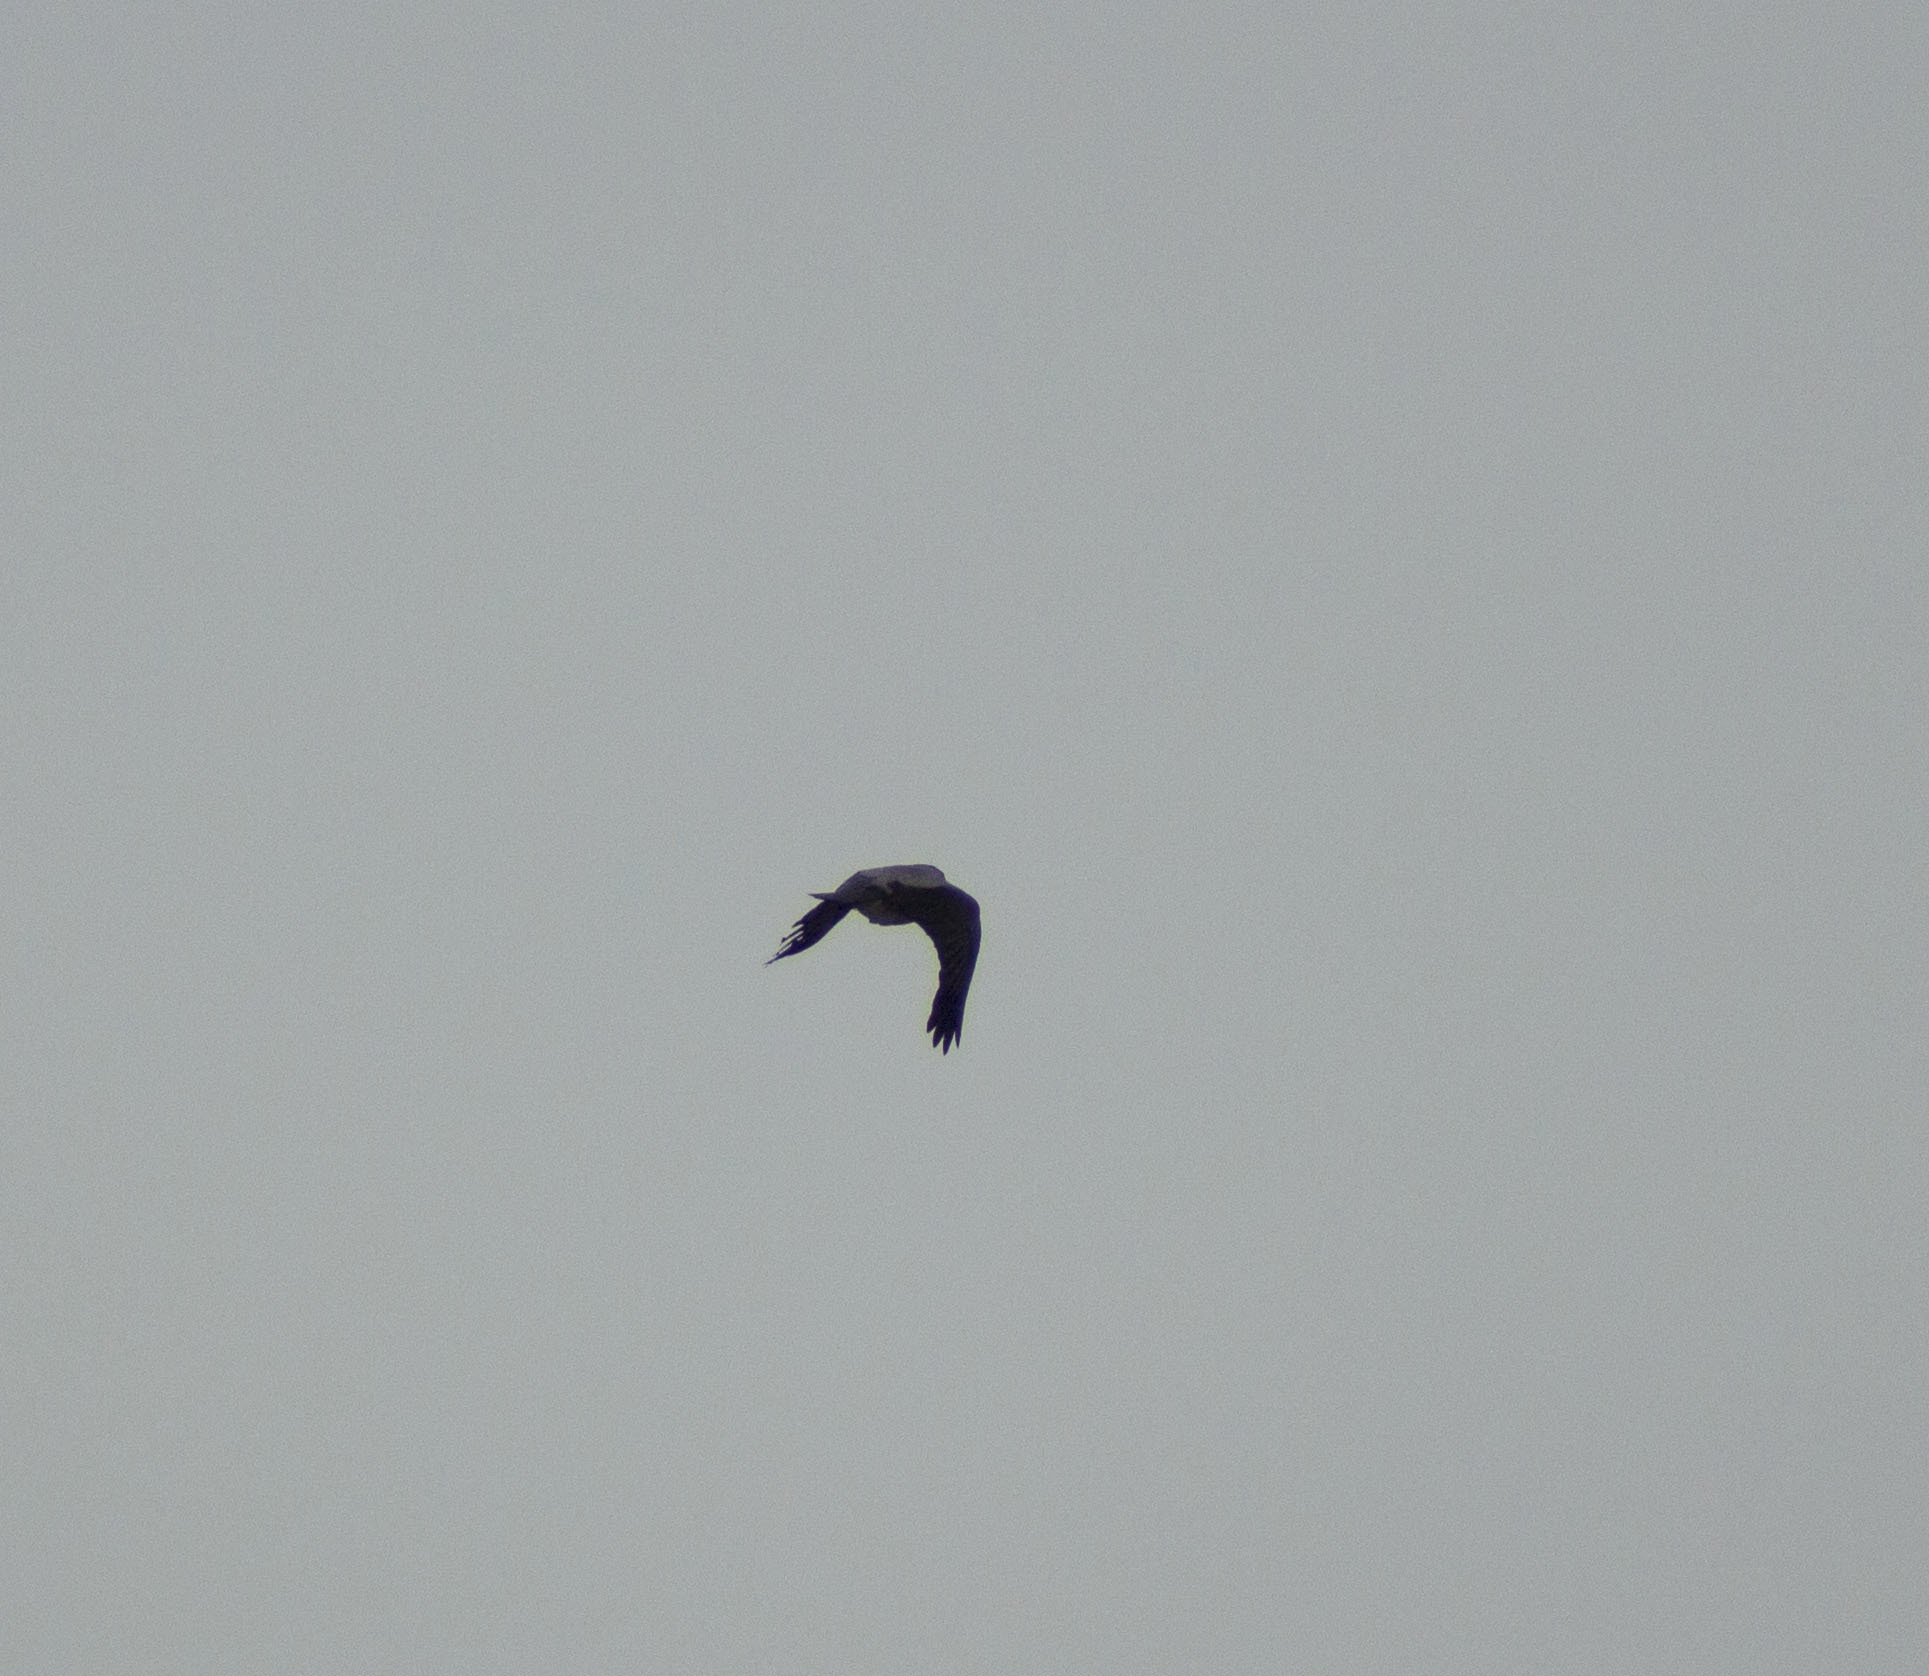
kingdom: Animalia
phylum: Chordata
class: Aves
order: Passeriformes
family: Corvidae
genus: Corvus
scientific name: Corvus cornix
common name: Hooded crow
